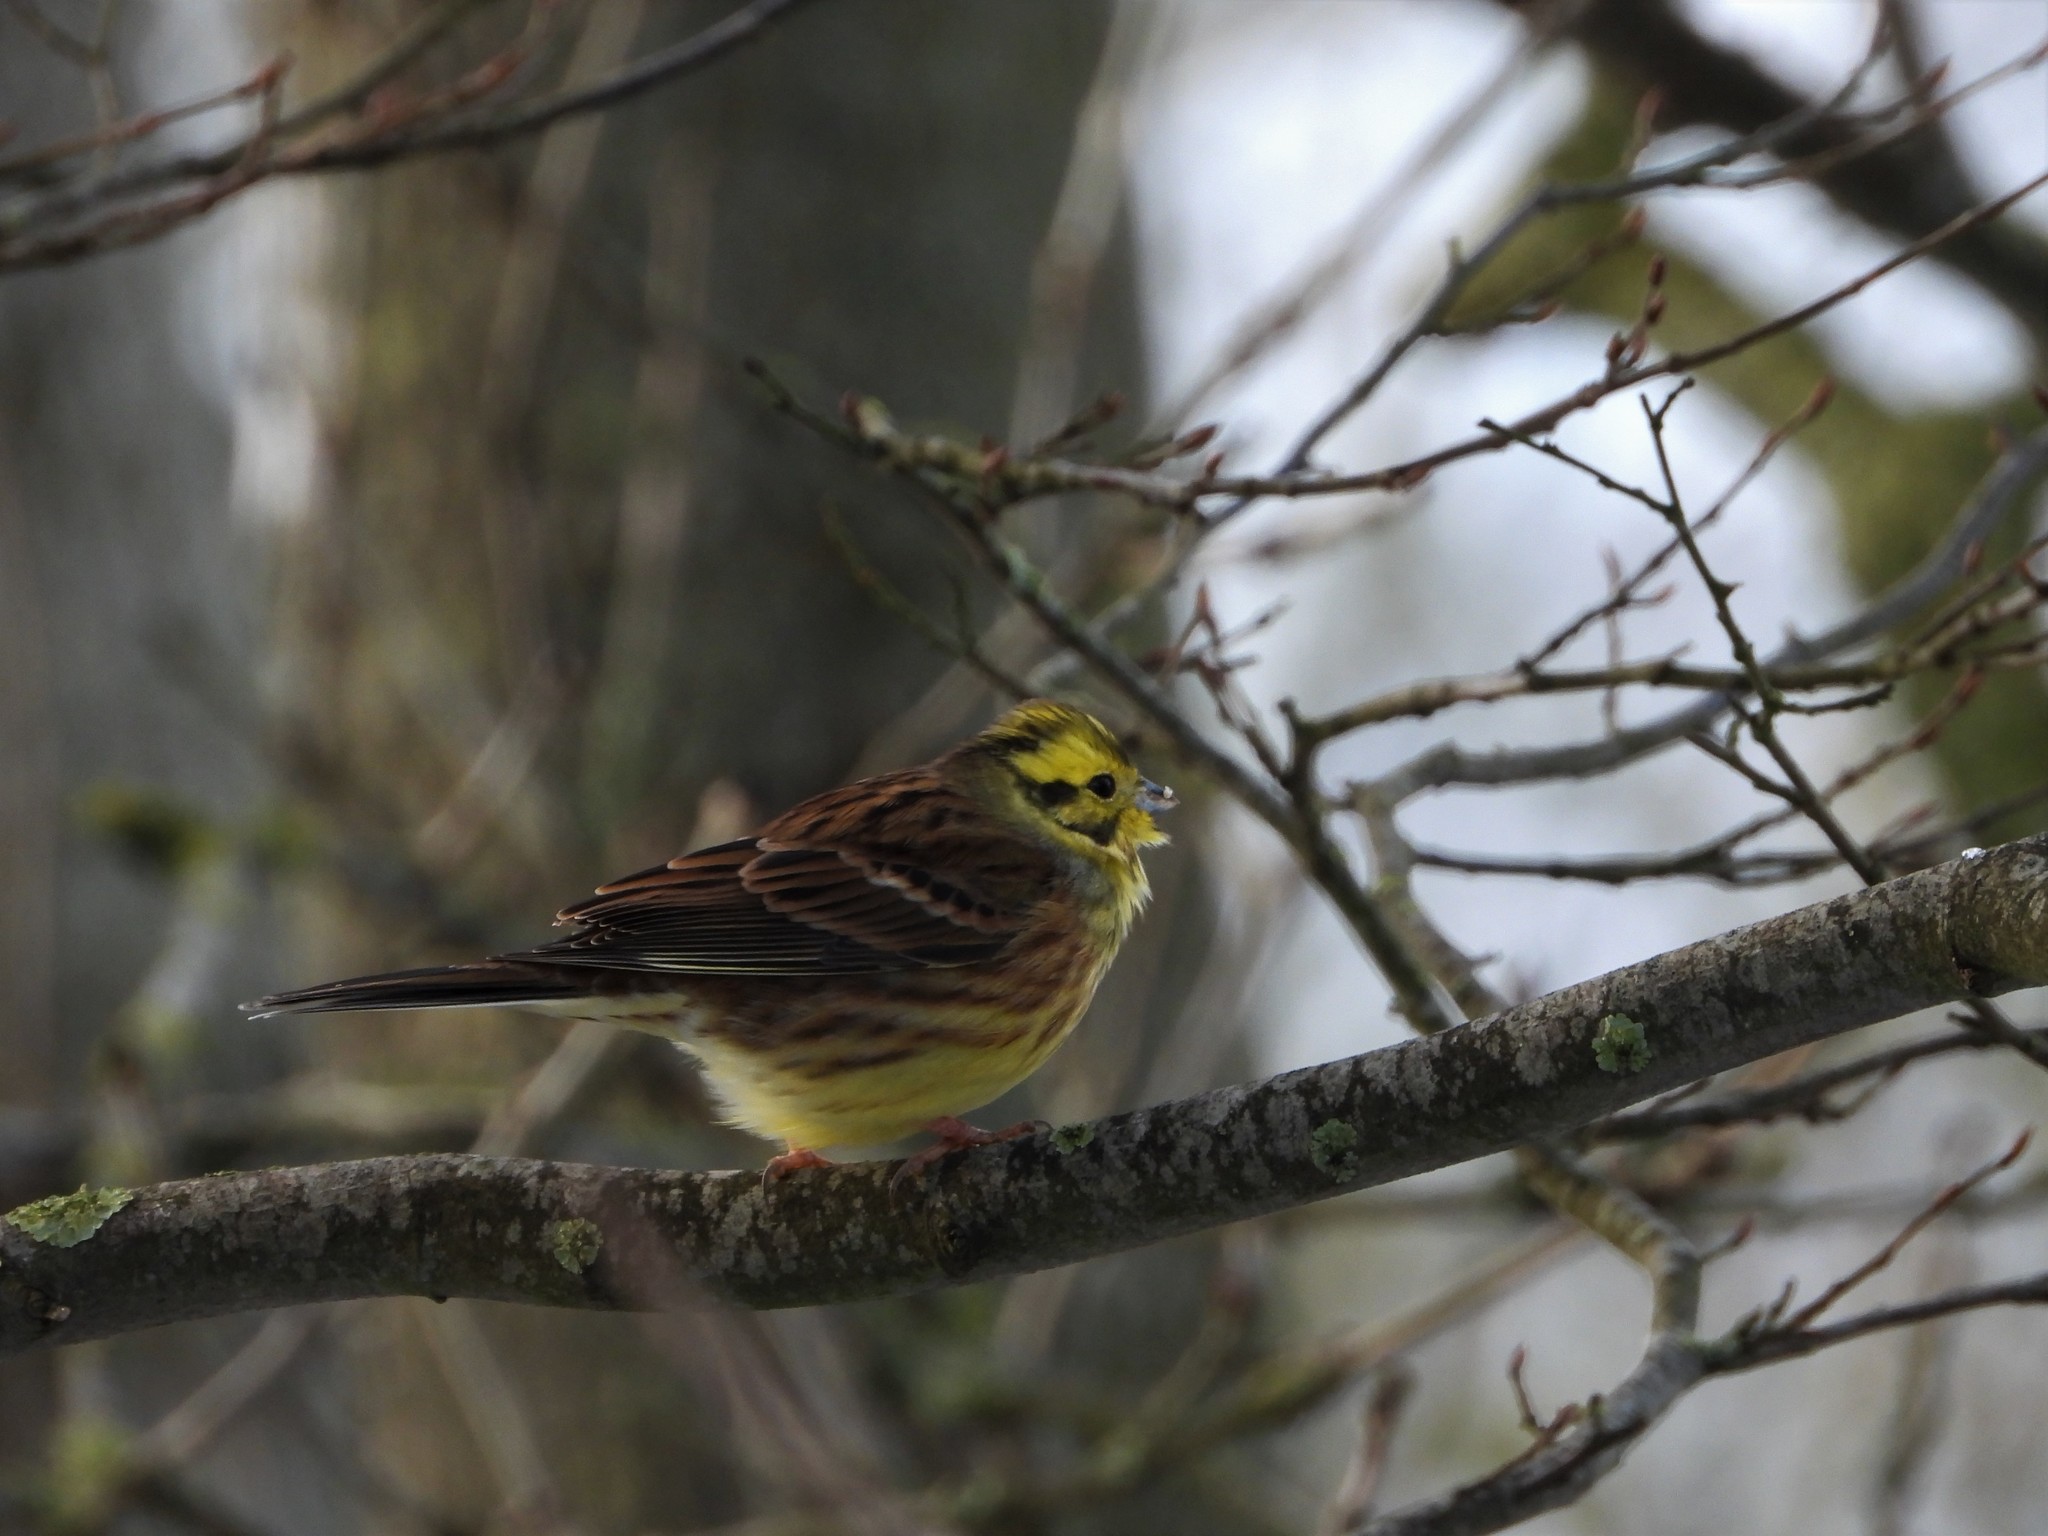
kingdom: Animalia
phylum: Chordata
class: Aves
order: Passeriformes
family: Emberizidae
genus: Emberiza
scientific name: Emberiza citrinella
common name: Yellowhammer
